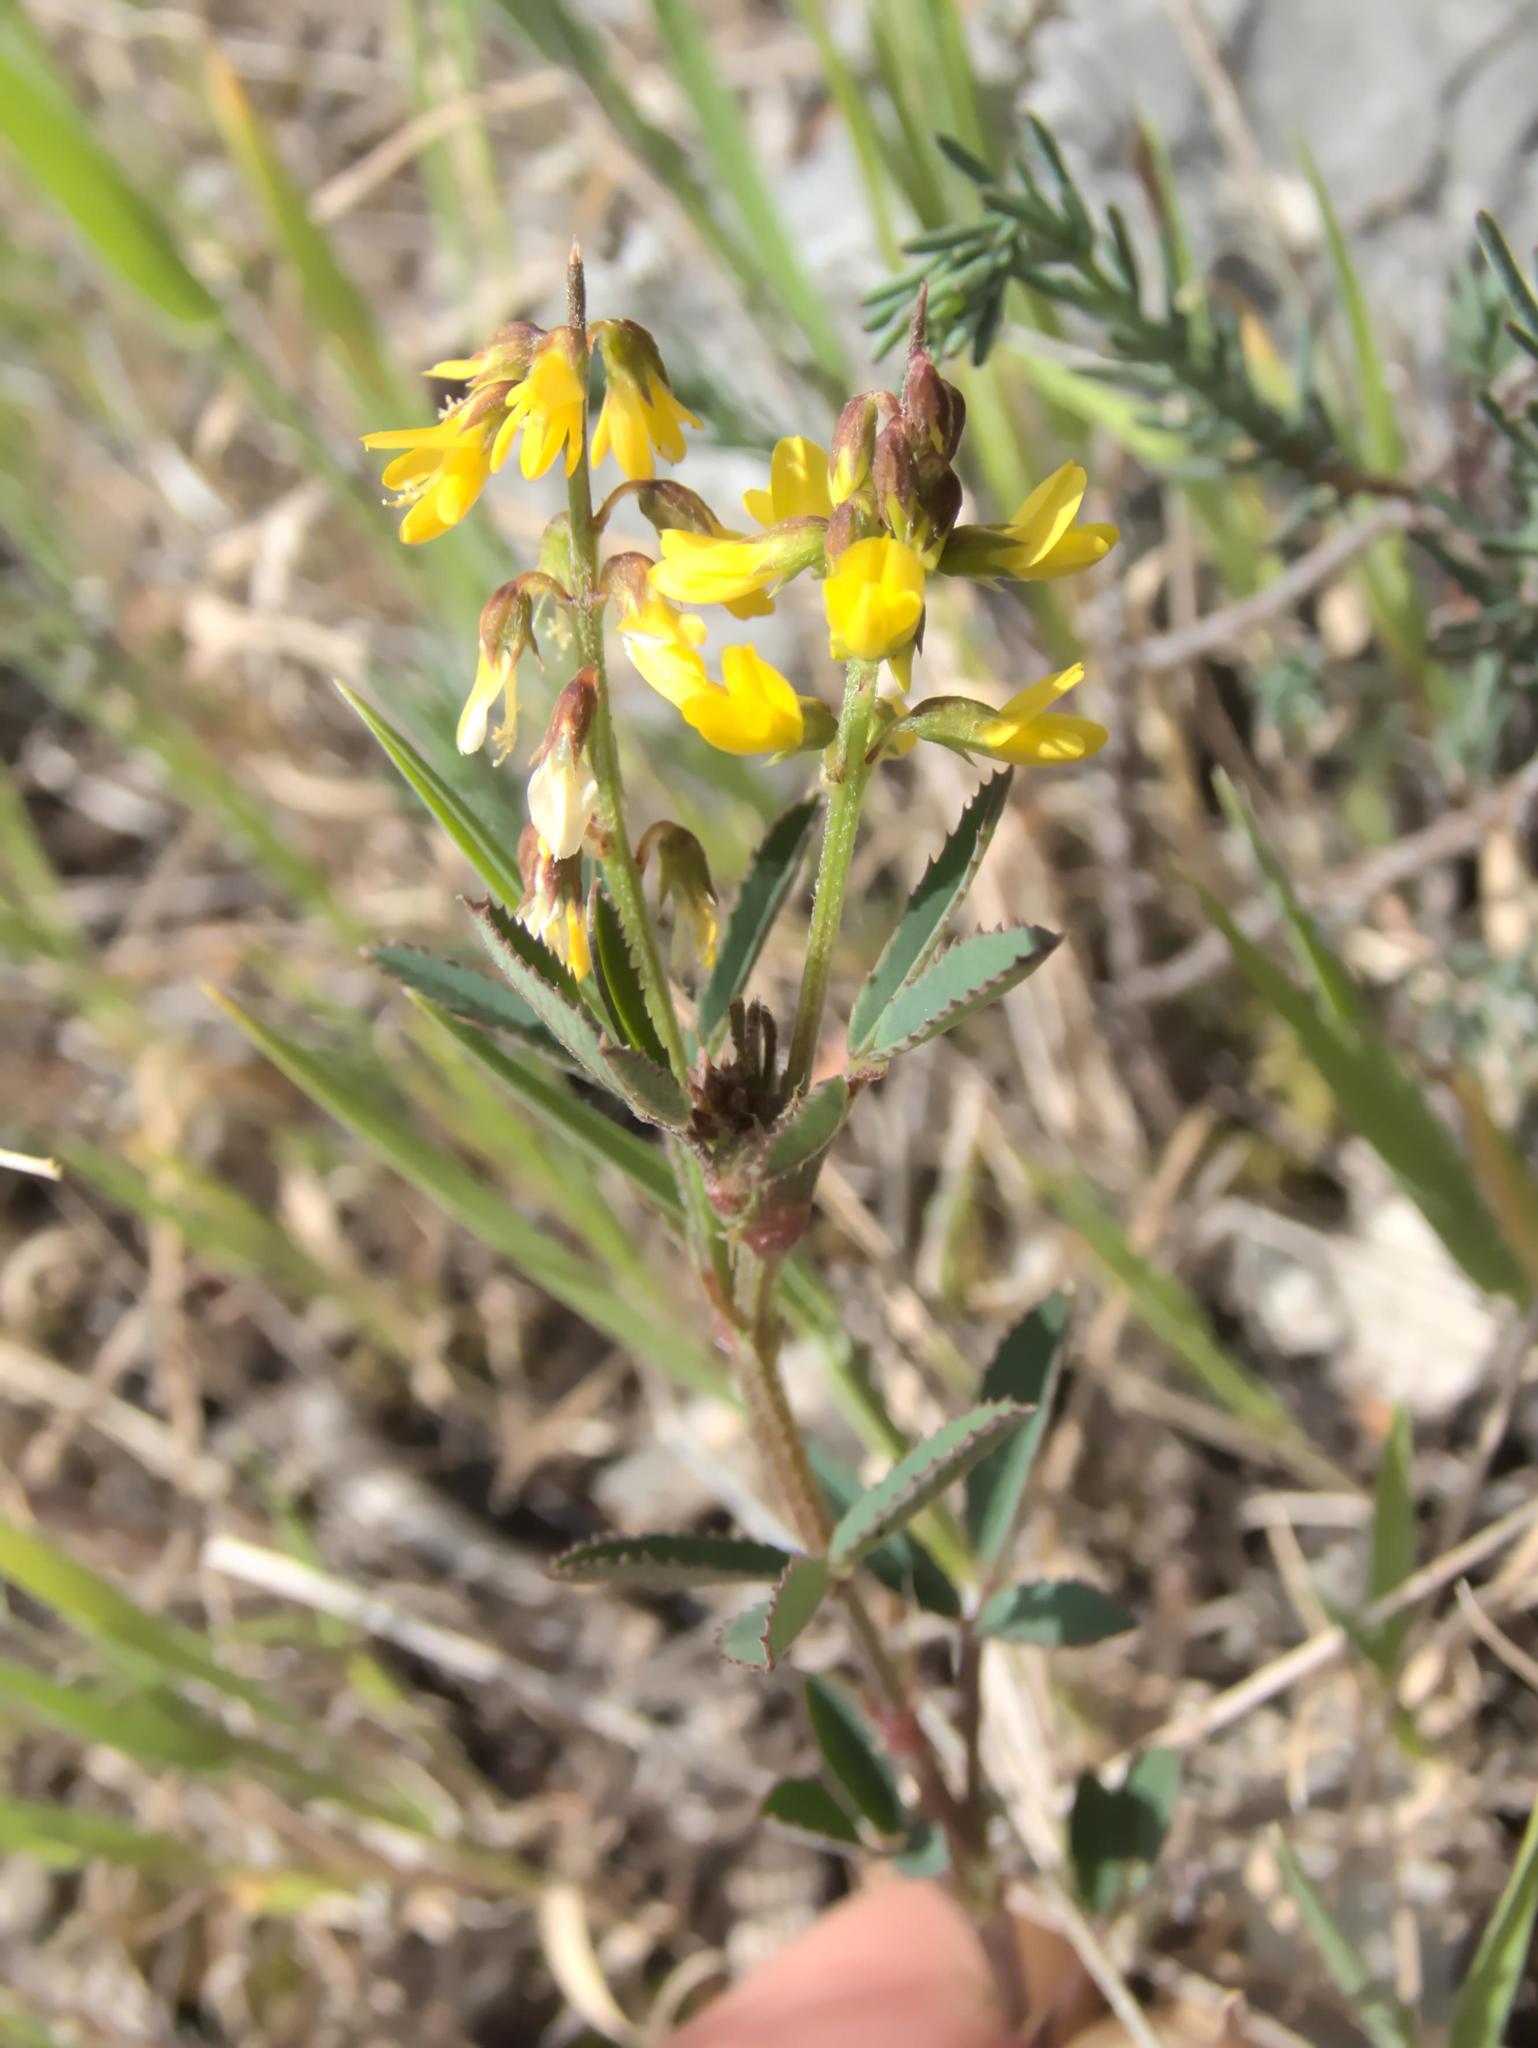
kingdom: Plantae
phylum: Tracheophyta
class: Magnoliopsida
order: Fabales
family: Fabaceae
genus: Melilotus
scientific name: Melilotus officinalis
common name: Sweetclover
